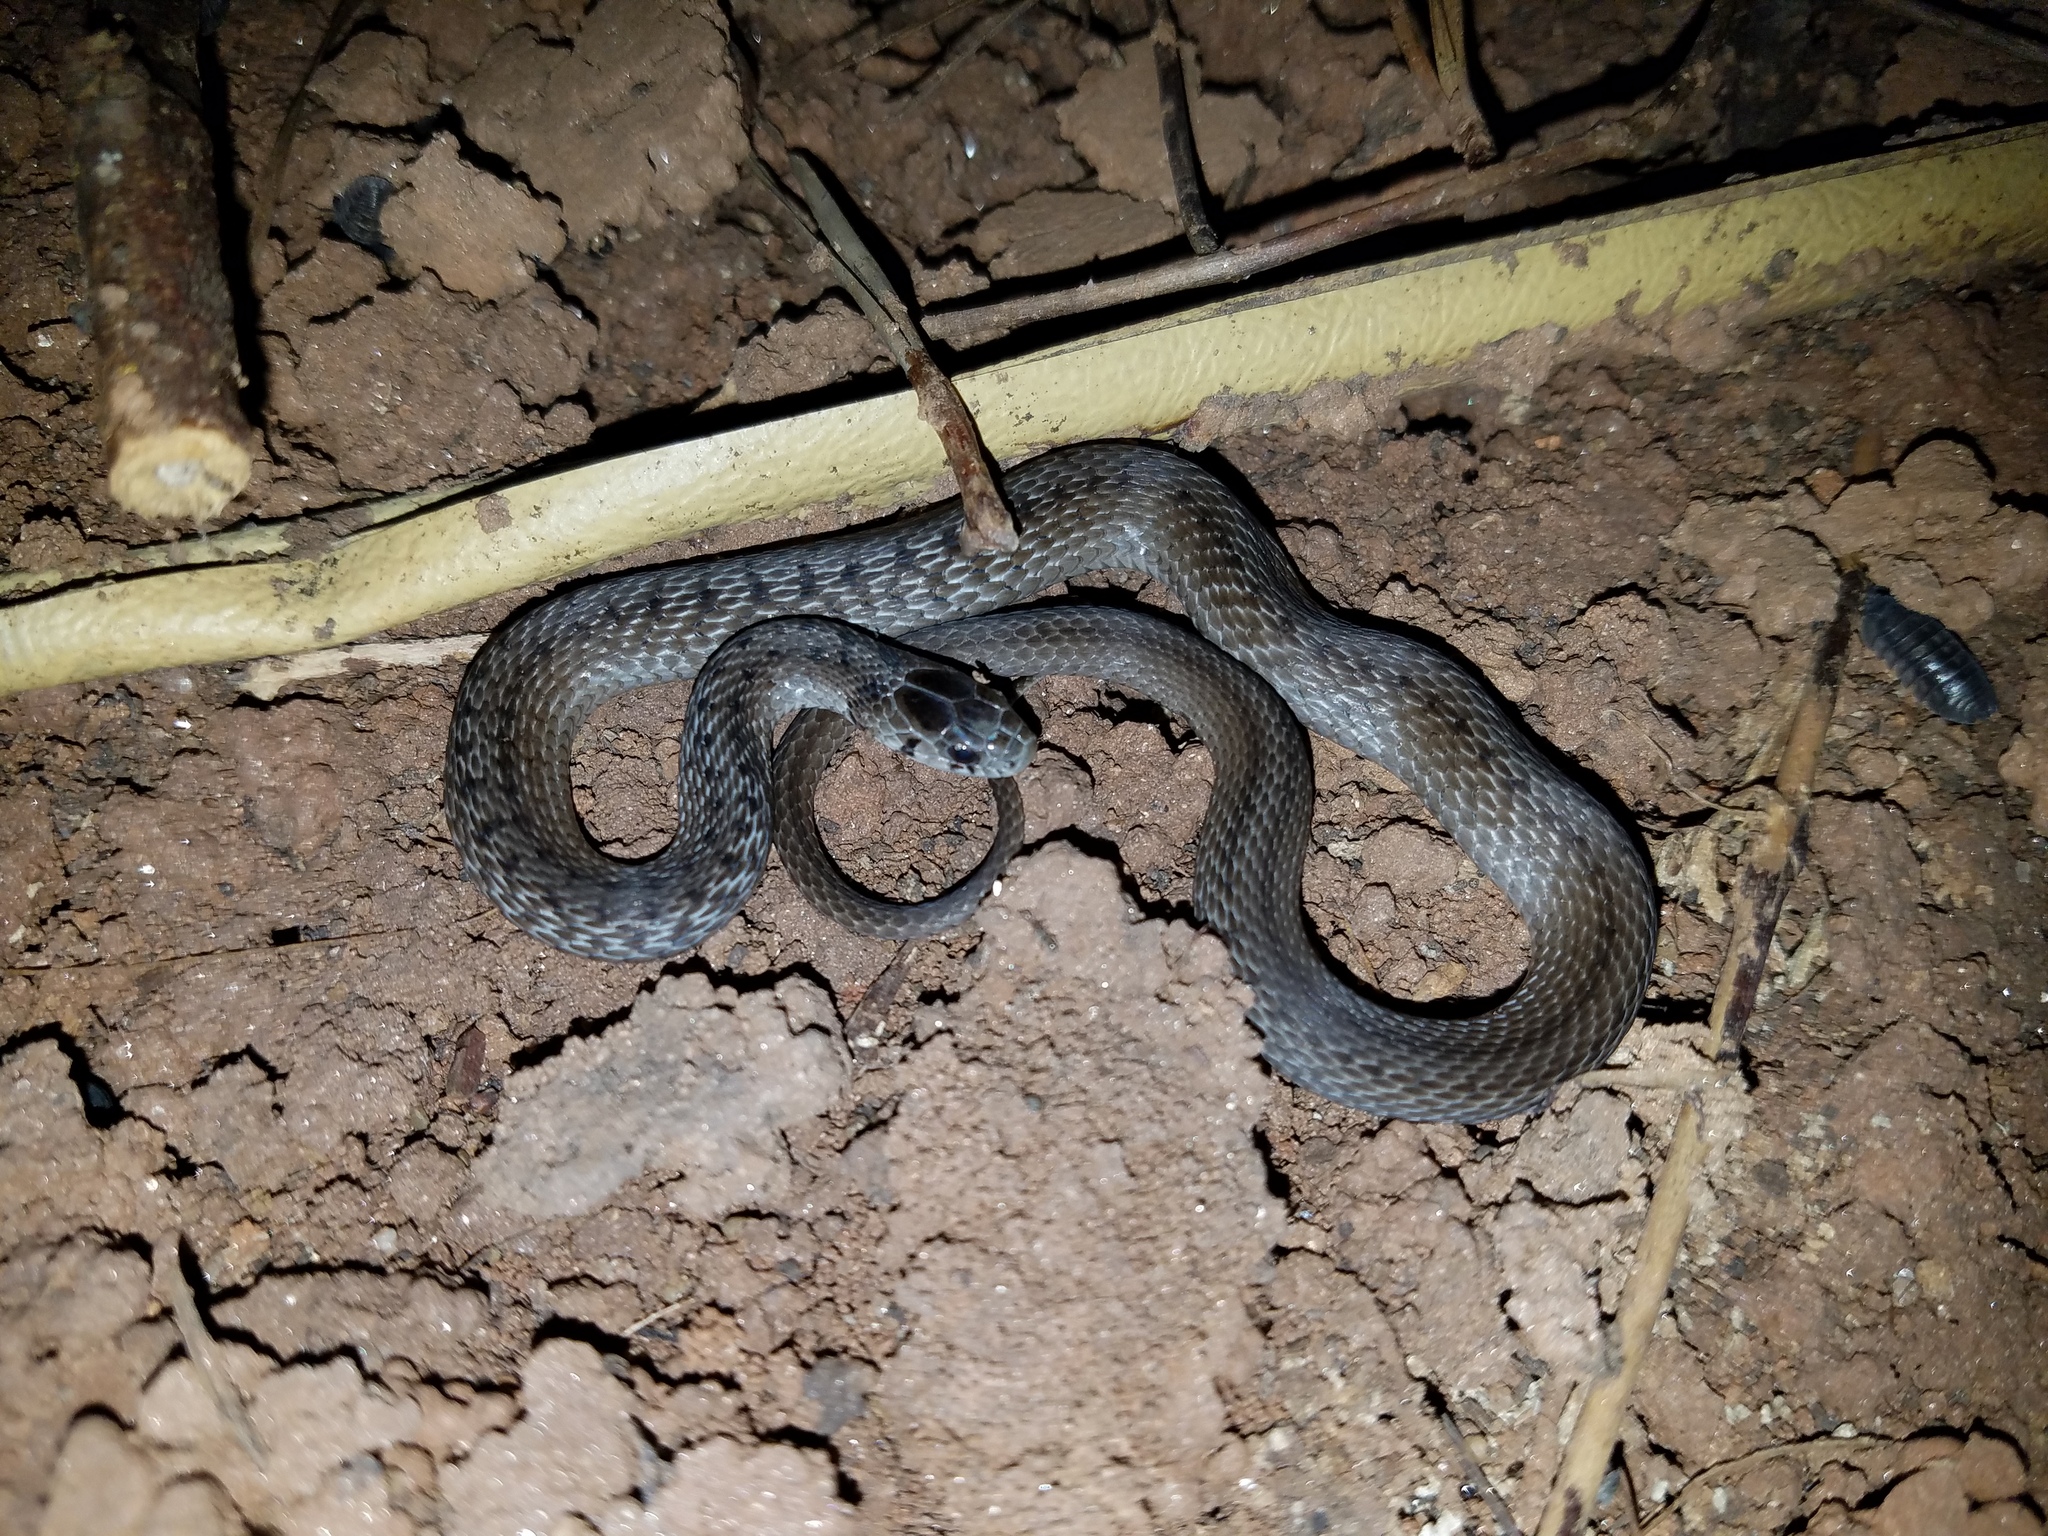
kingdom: Animalia
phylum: Chordata
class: Squamata
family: Colubridae
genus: Storeria
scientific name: Storeria dekayi
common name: (dekay’s) brown snake
